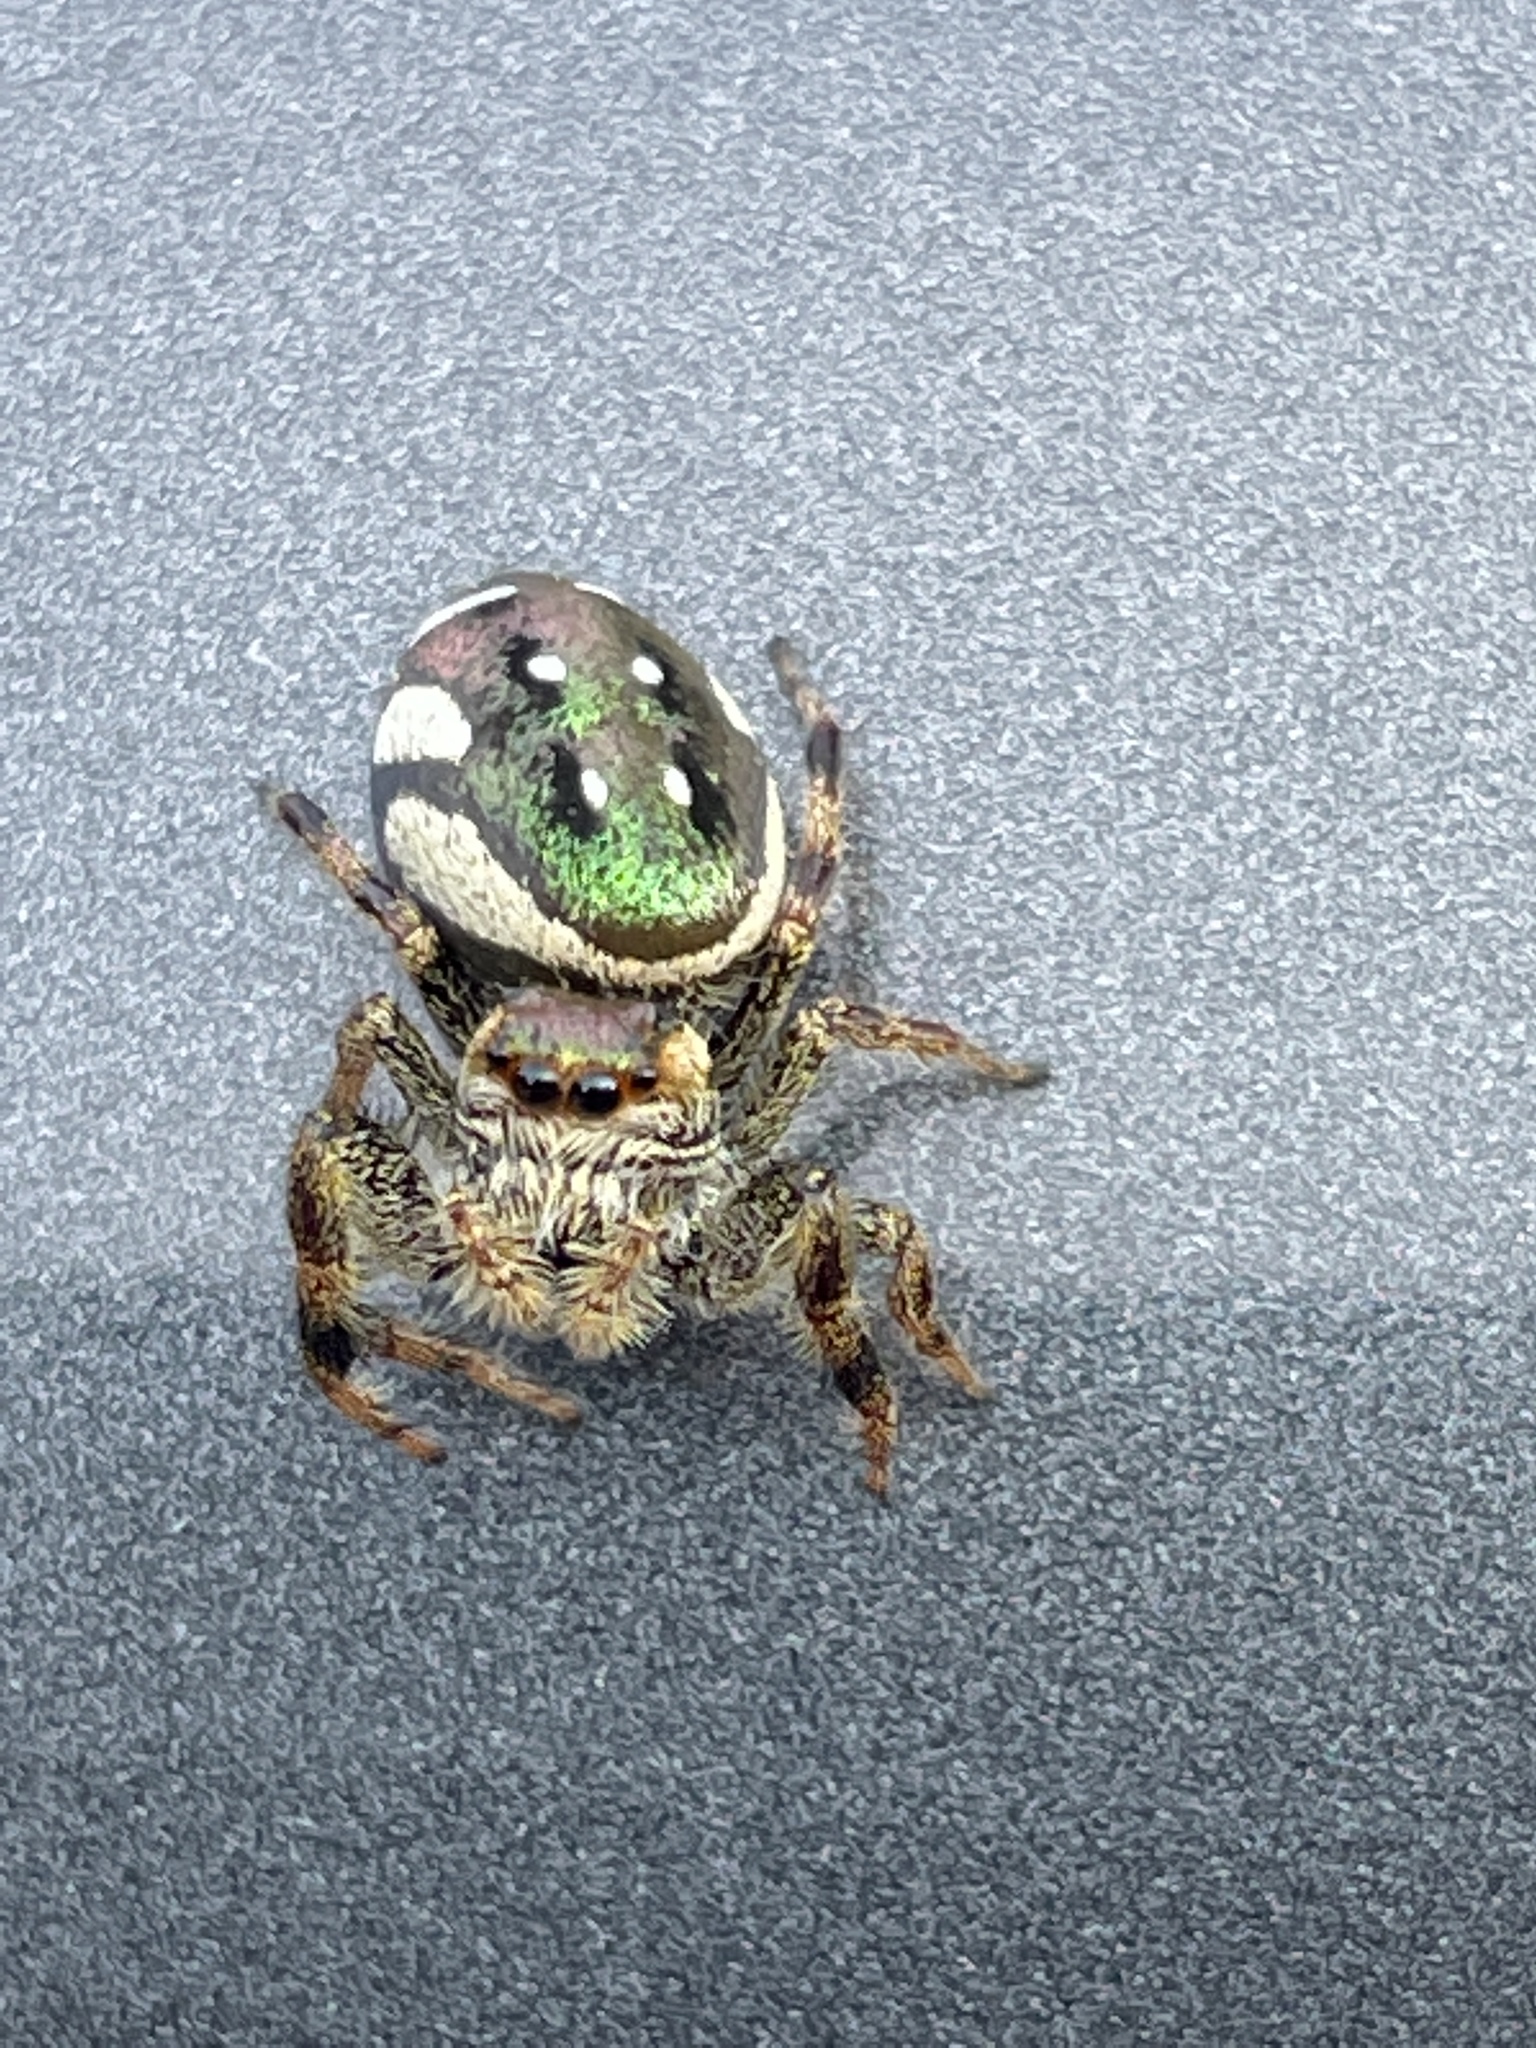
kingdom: Animalia
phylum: Arthropoda
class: Arachnida
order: Araneae
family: Salticidae
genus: Paraphidippus
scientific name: Paraphidippus aurantius
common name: Jumping spiders
